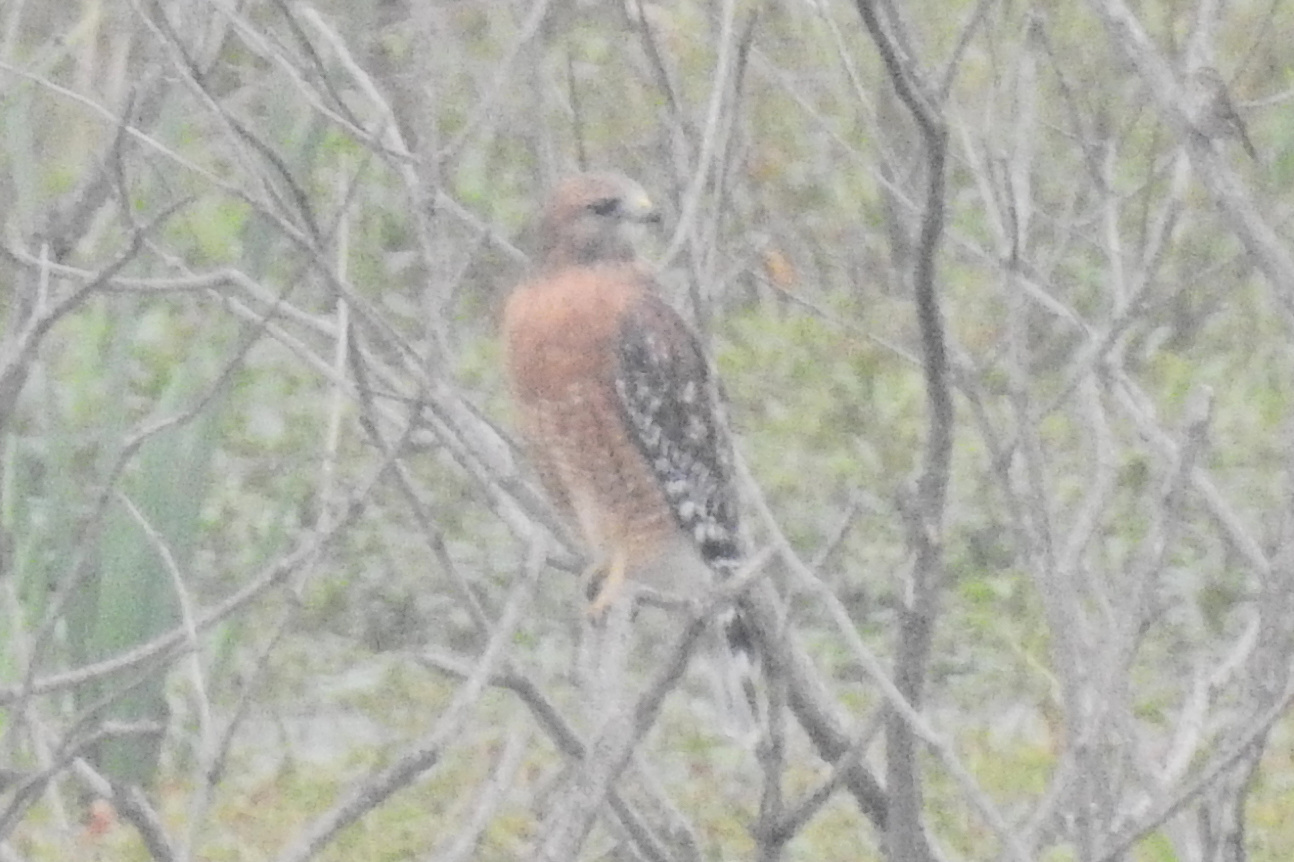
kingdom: Animalia
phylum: Chordata
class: Aves
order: Accipitriformes
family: Accipitridae
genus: Buteo
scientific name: Buteo lineatus
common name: Red-shouldered hawk
